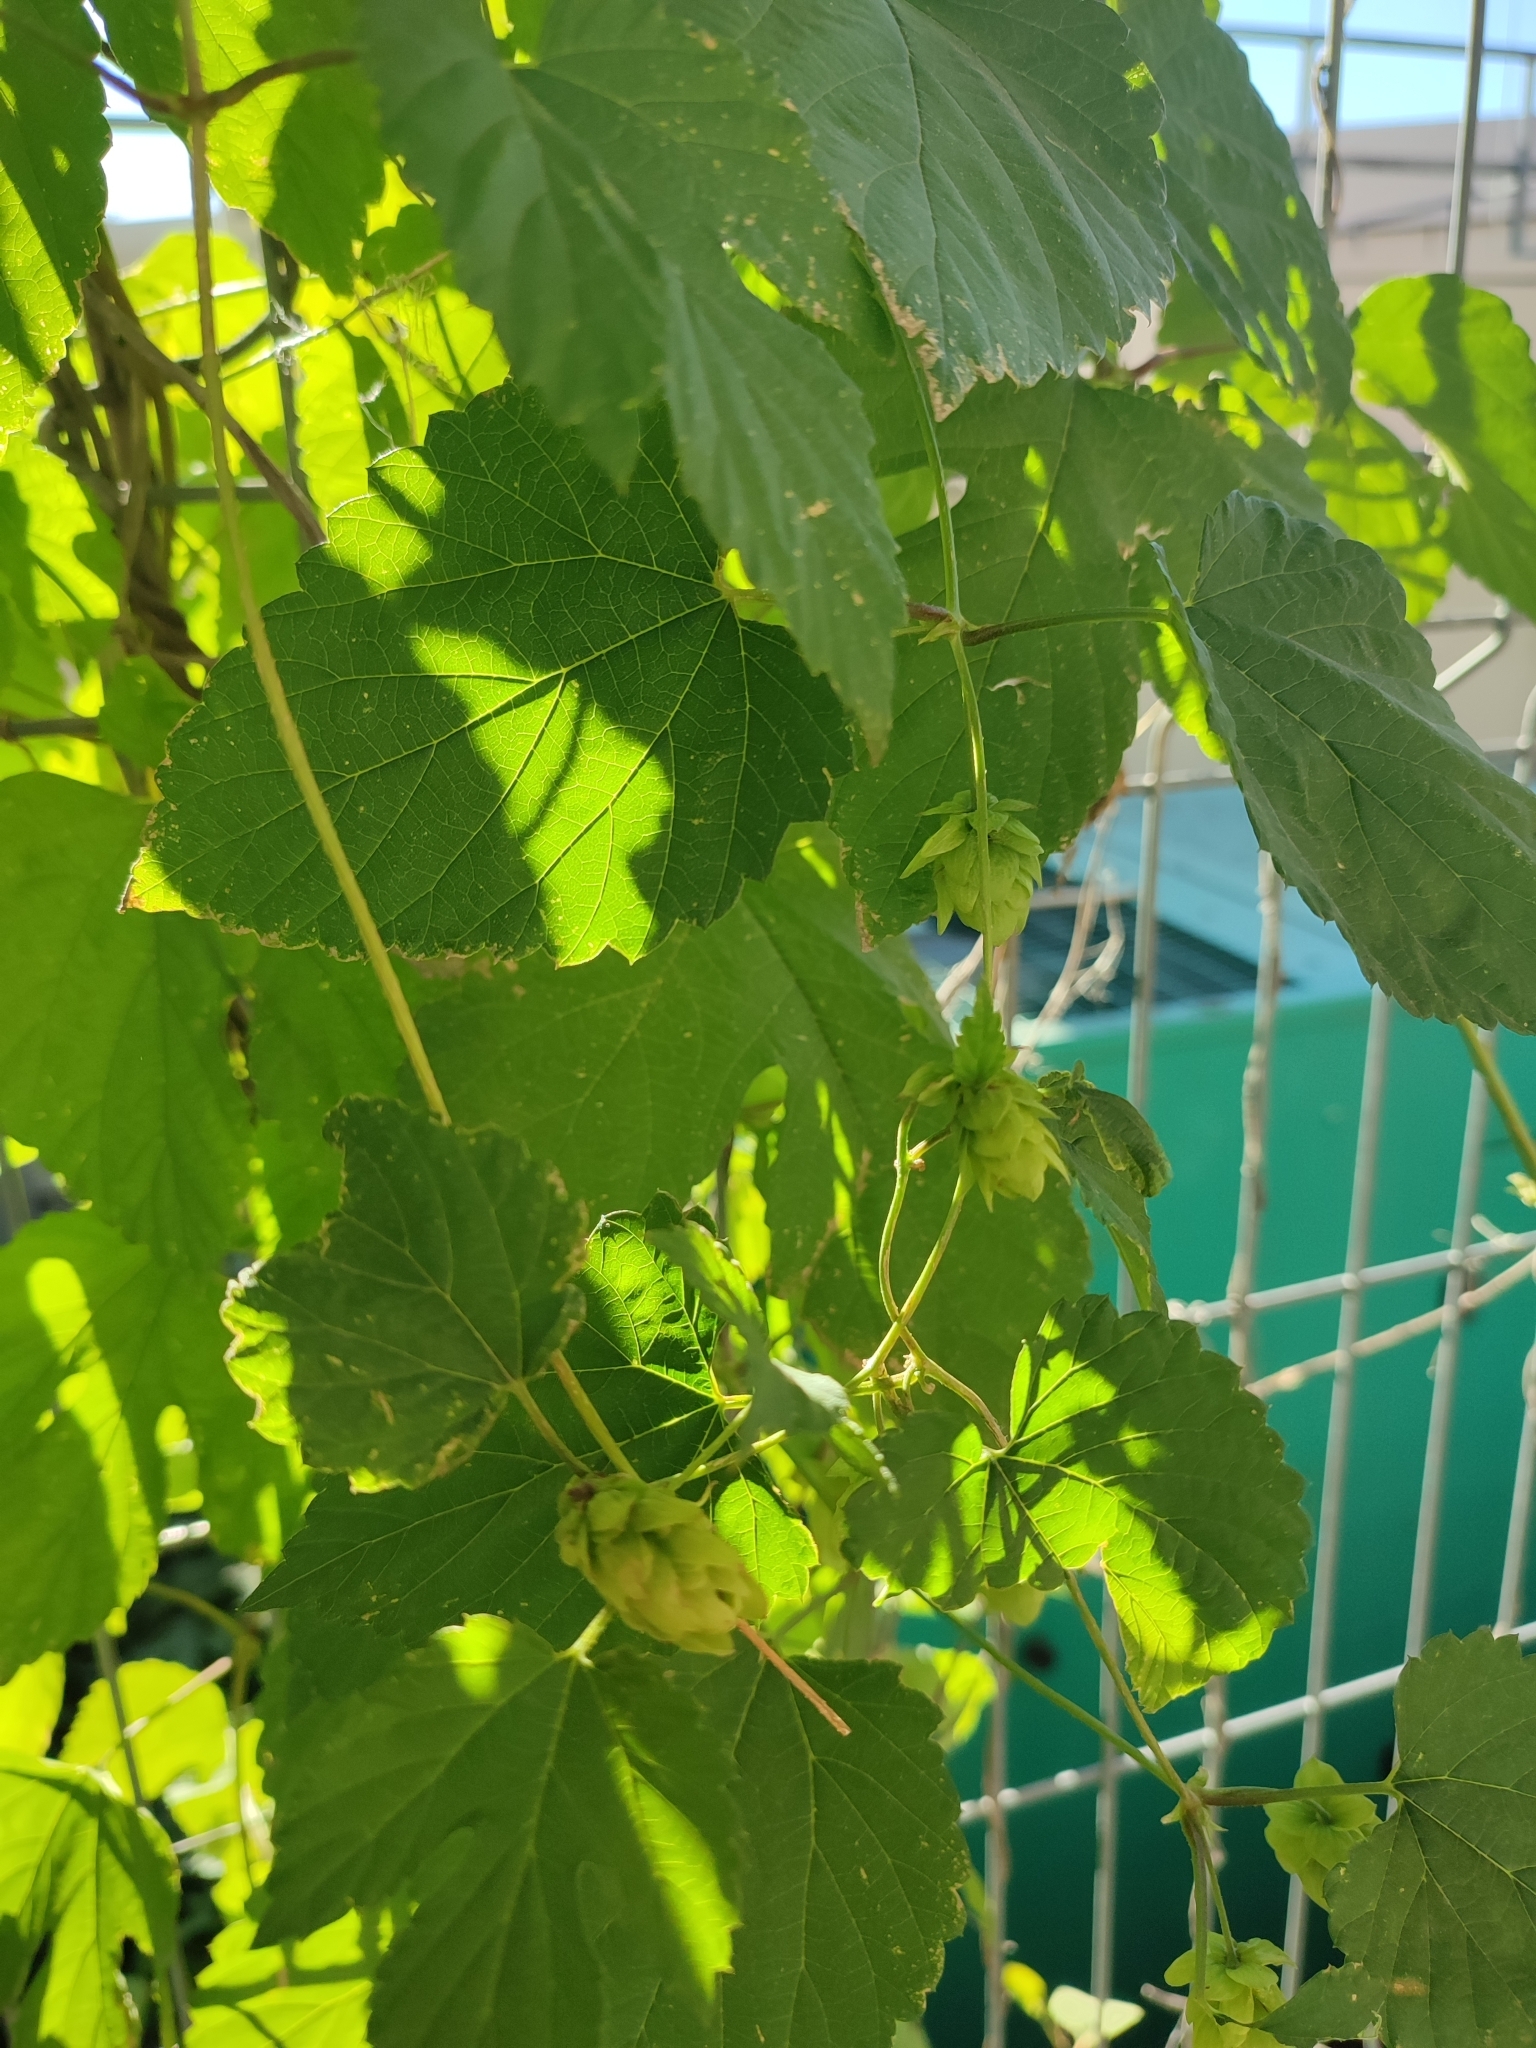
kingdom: Plantae
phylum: Tracheophyta
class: Magnoliopsida
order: Rosales
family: Cannabaceae
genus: Humulus
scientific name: Humulus lupulus
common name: Hop
